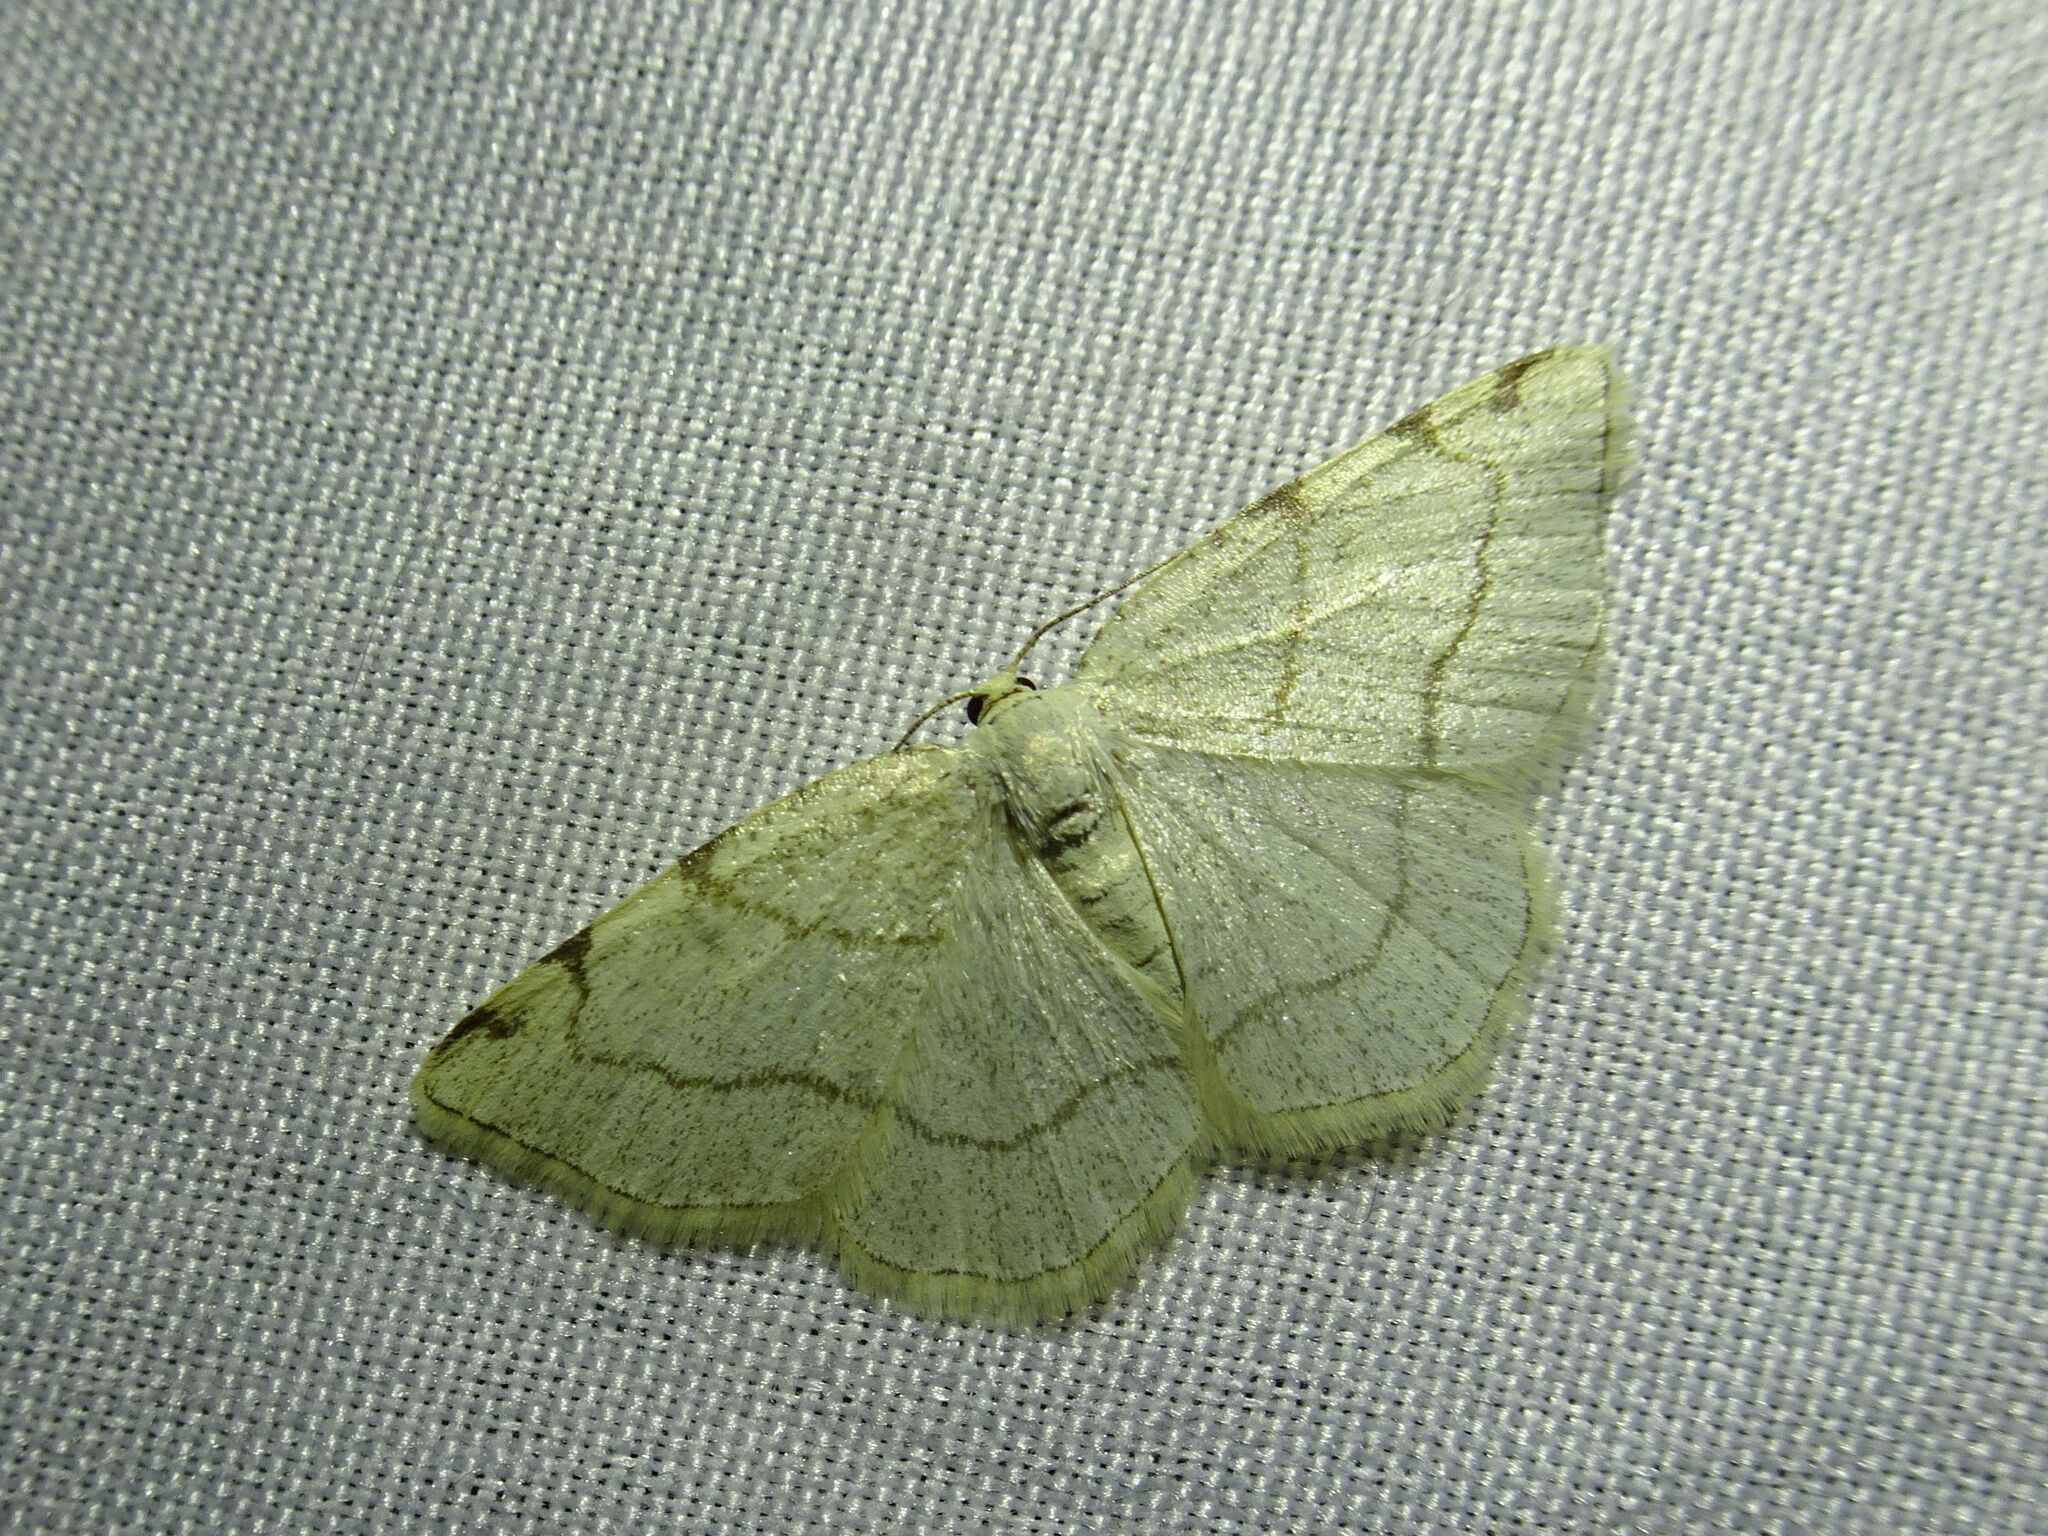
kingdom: Animalia
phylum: Arthropoda
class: Insecta
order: Lepidoptera
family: Geometridae
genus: Stegania
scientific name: Stegania trimaculata
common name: Dorset cream wave
